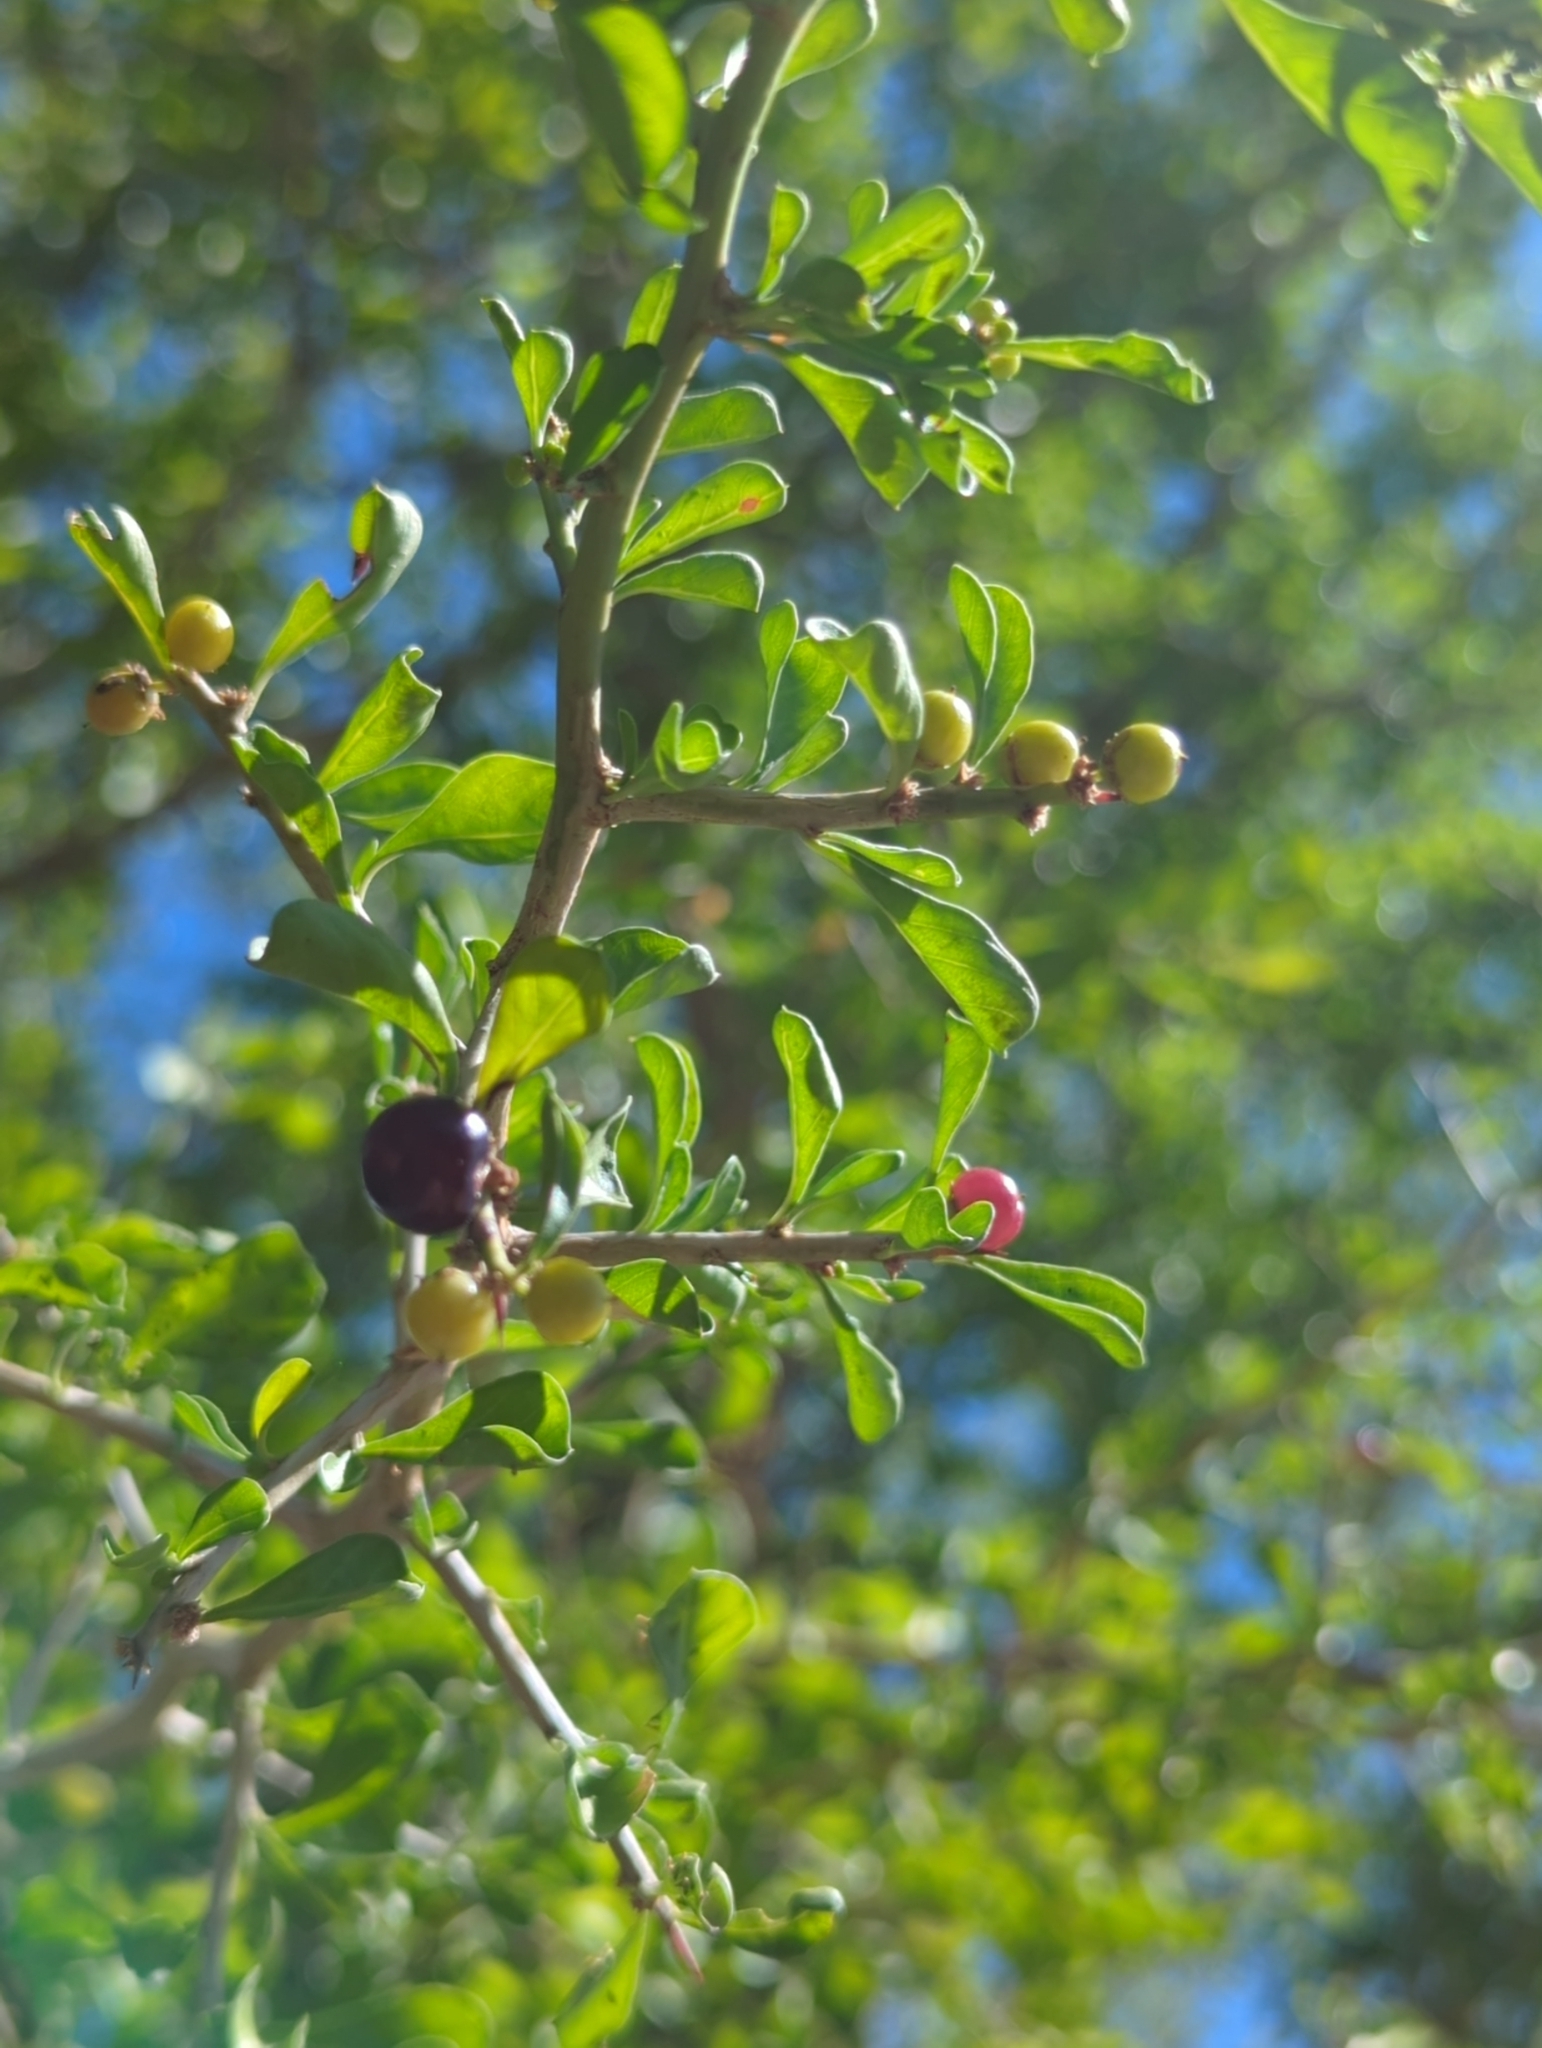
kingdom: Plantae
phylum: Tracheophyta
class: Magnoliopsida
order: Rosales
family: Rhamnaceae
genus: Condalia
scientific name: Condalia hookeri
